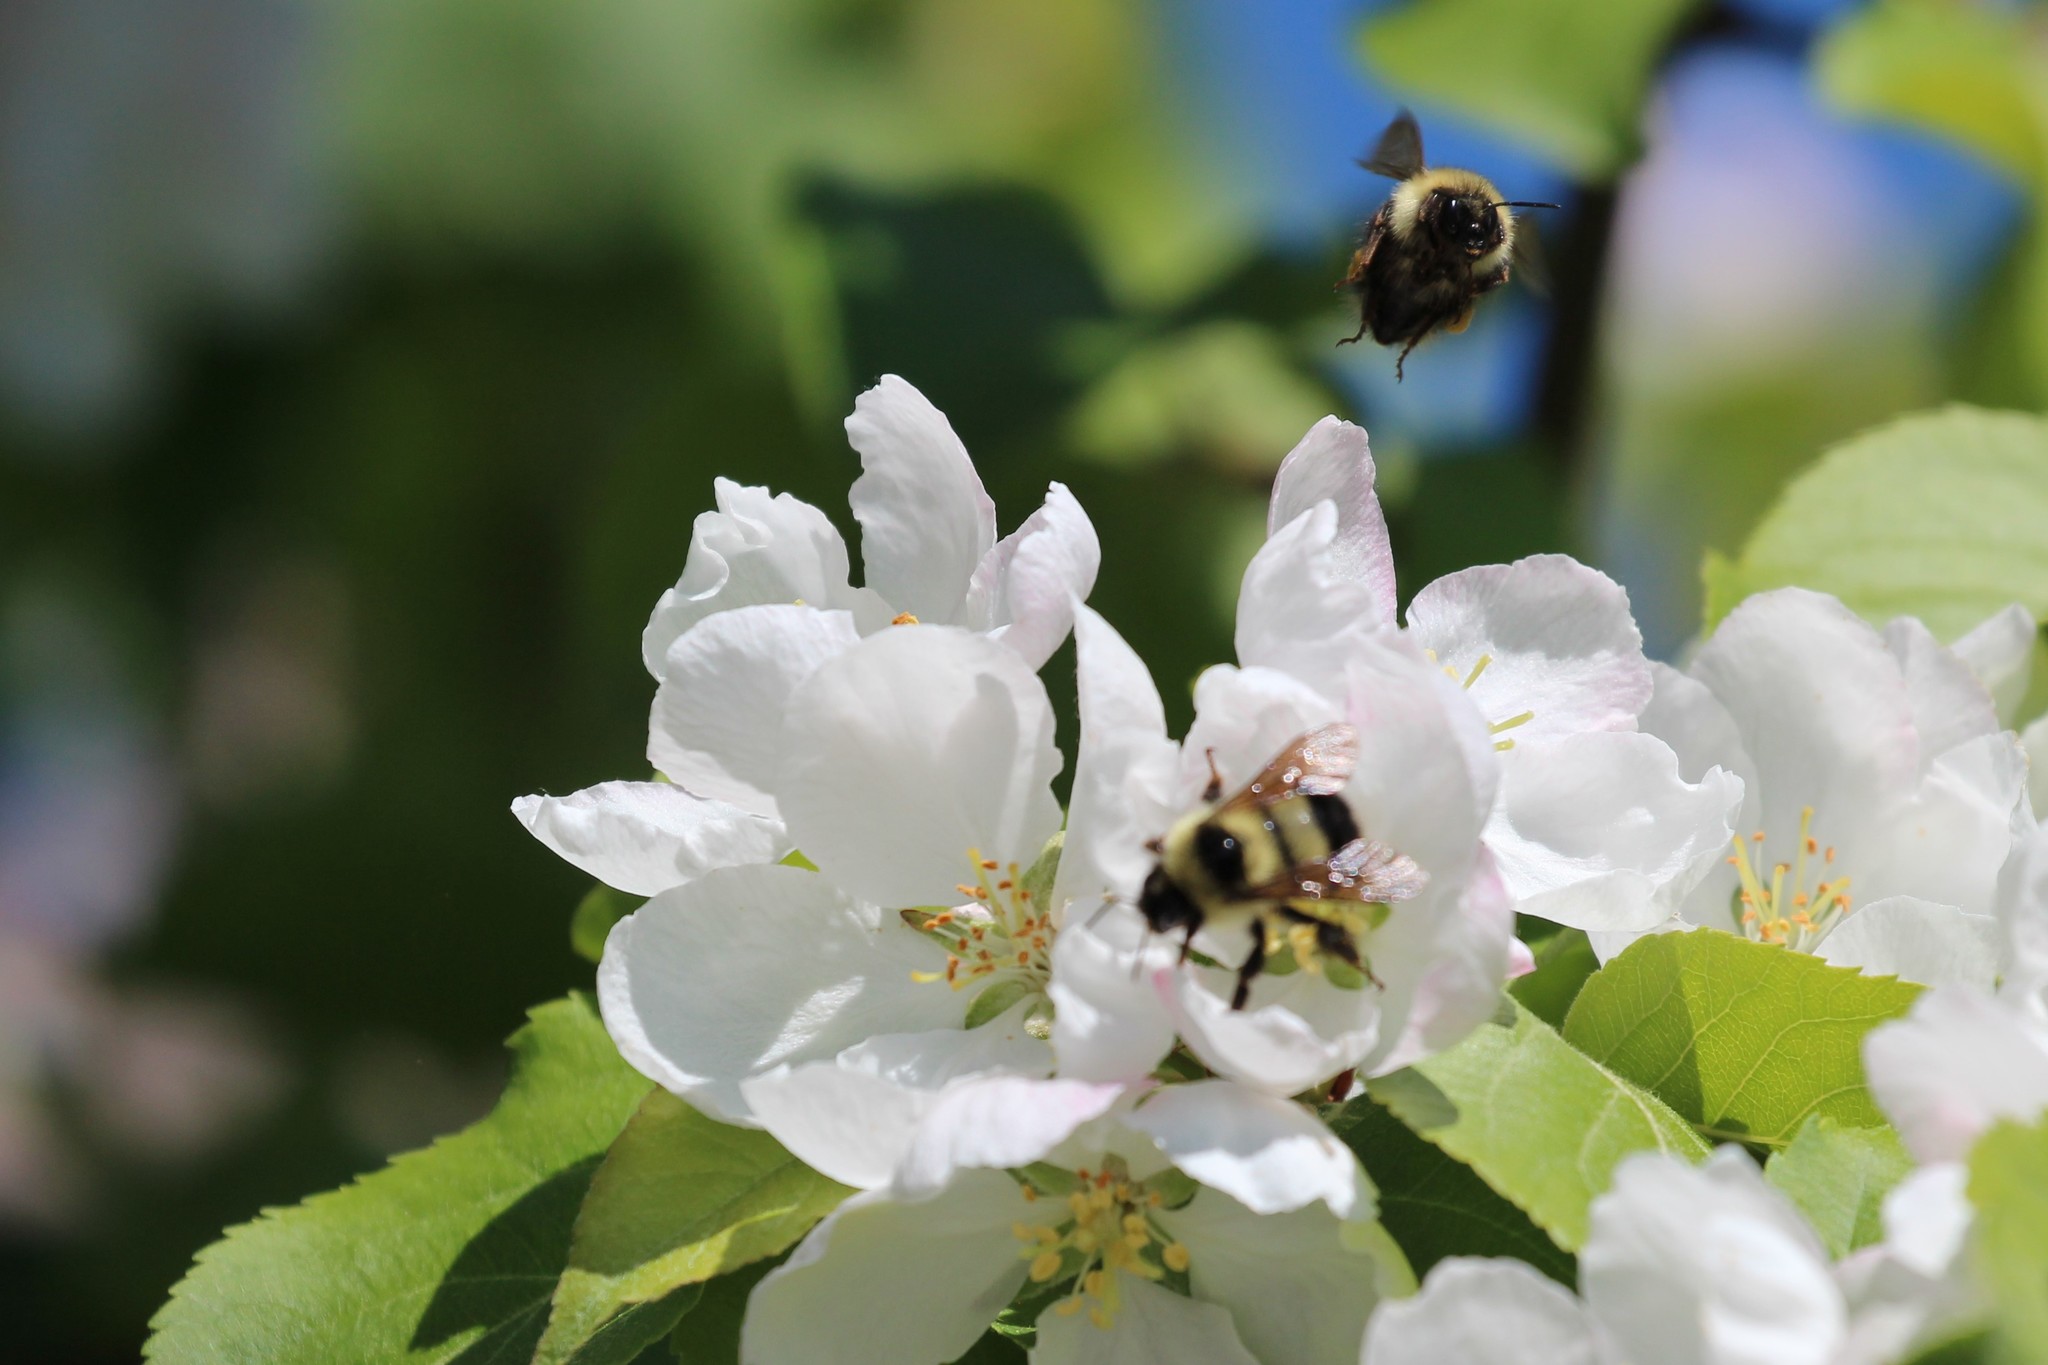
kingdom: Animalia
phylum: Arthropoda
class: Insecta
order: Hymenoptera
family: Apidae
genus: Bombus
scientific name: Bombus sandersoni
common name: Sanderson bumble bee
